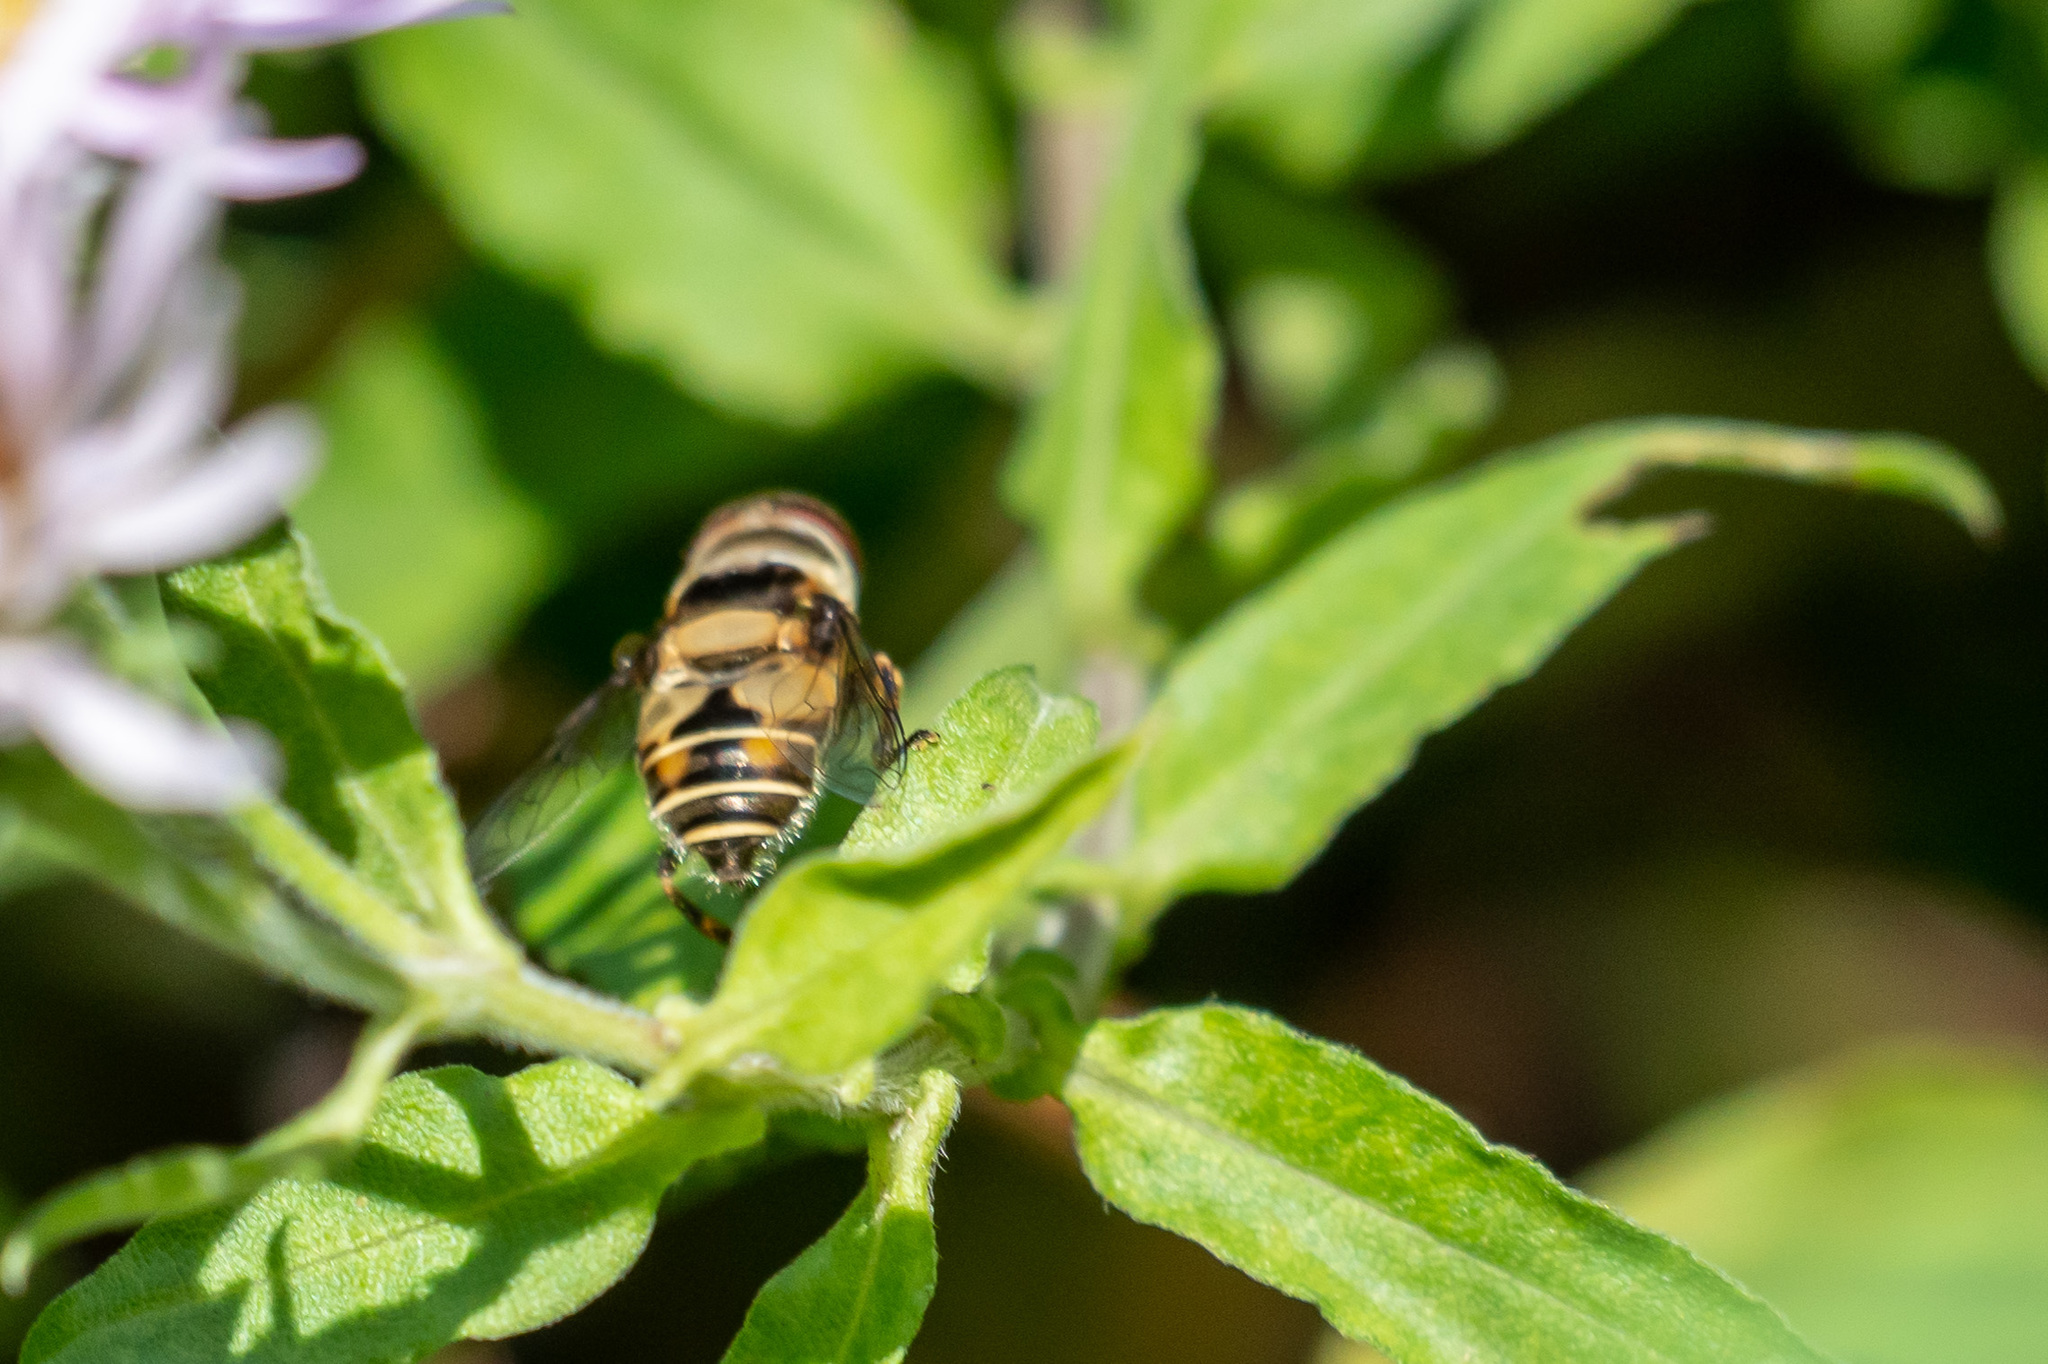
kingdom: Animalia
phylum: Arthropoda
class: Insecta
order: Diptera
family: Syrphidae
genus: Palpada
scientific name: Palpada agrorum
